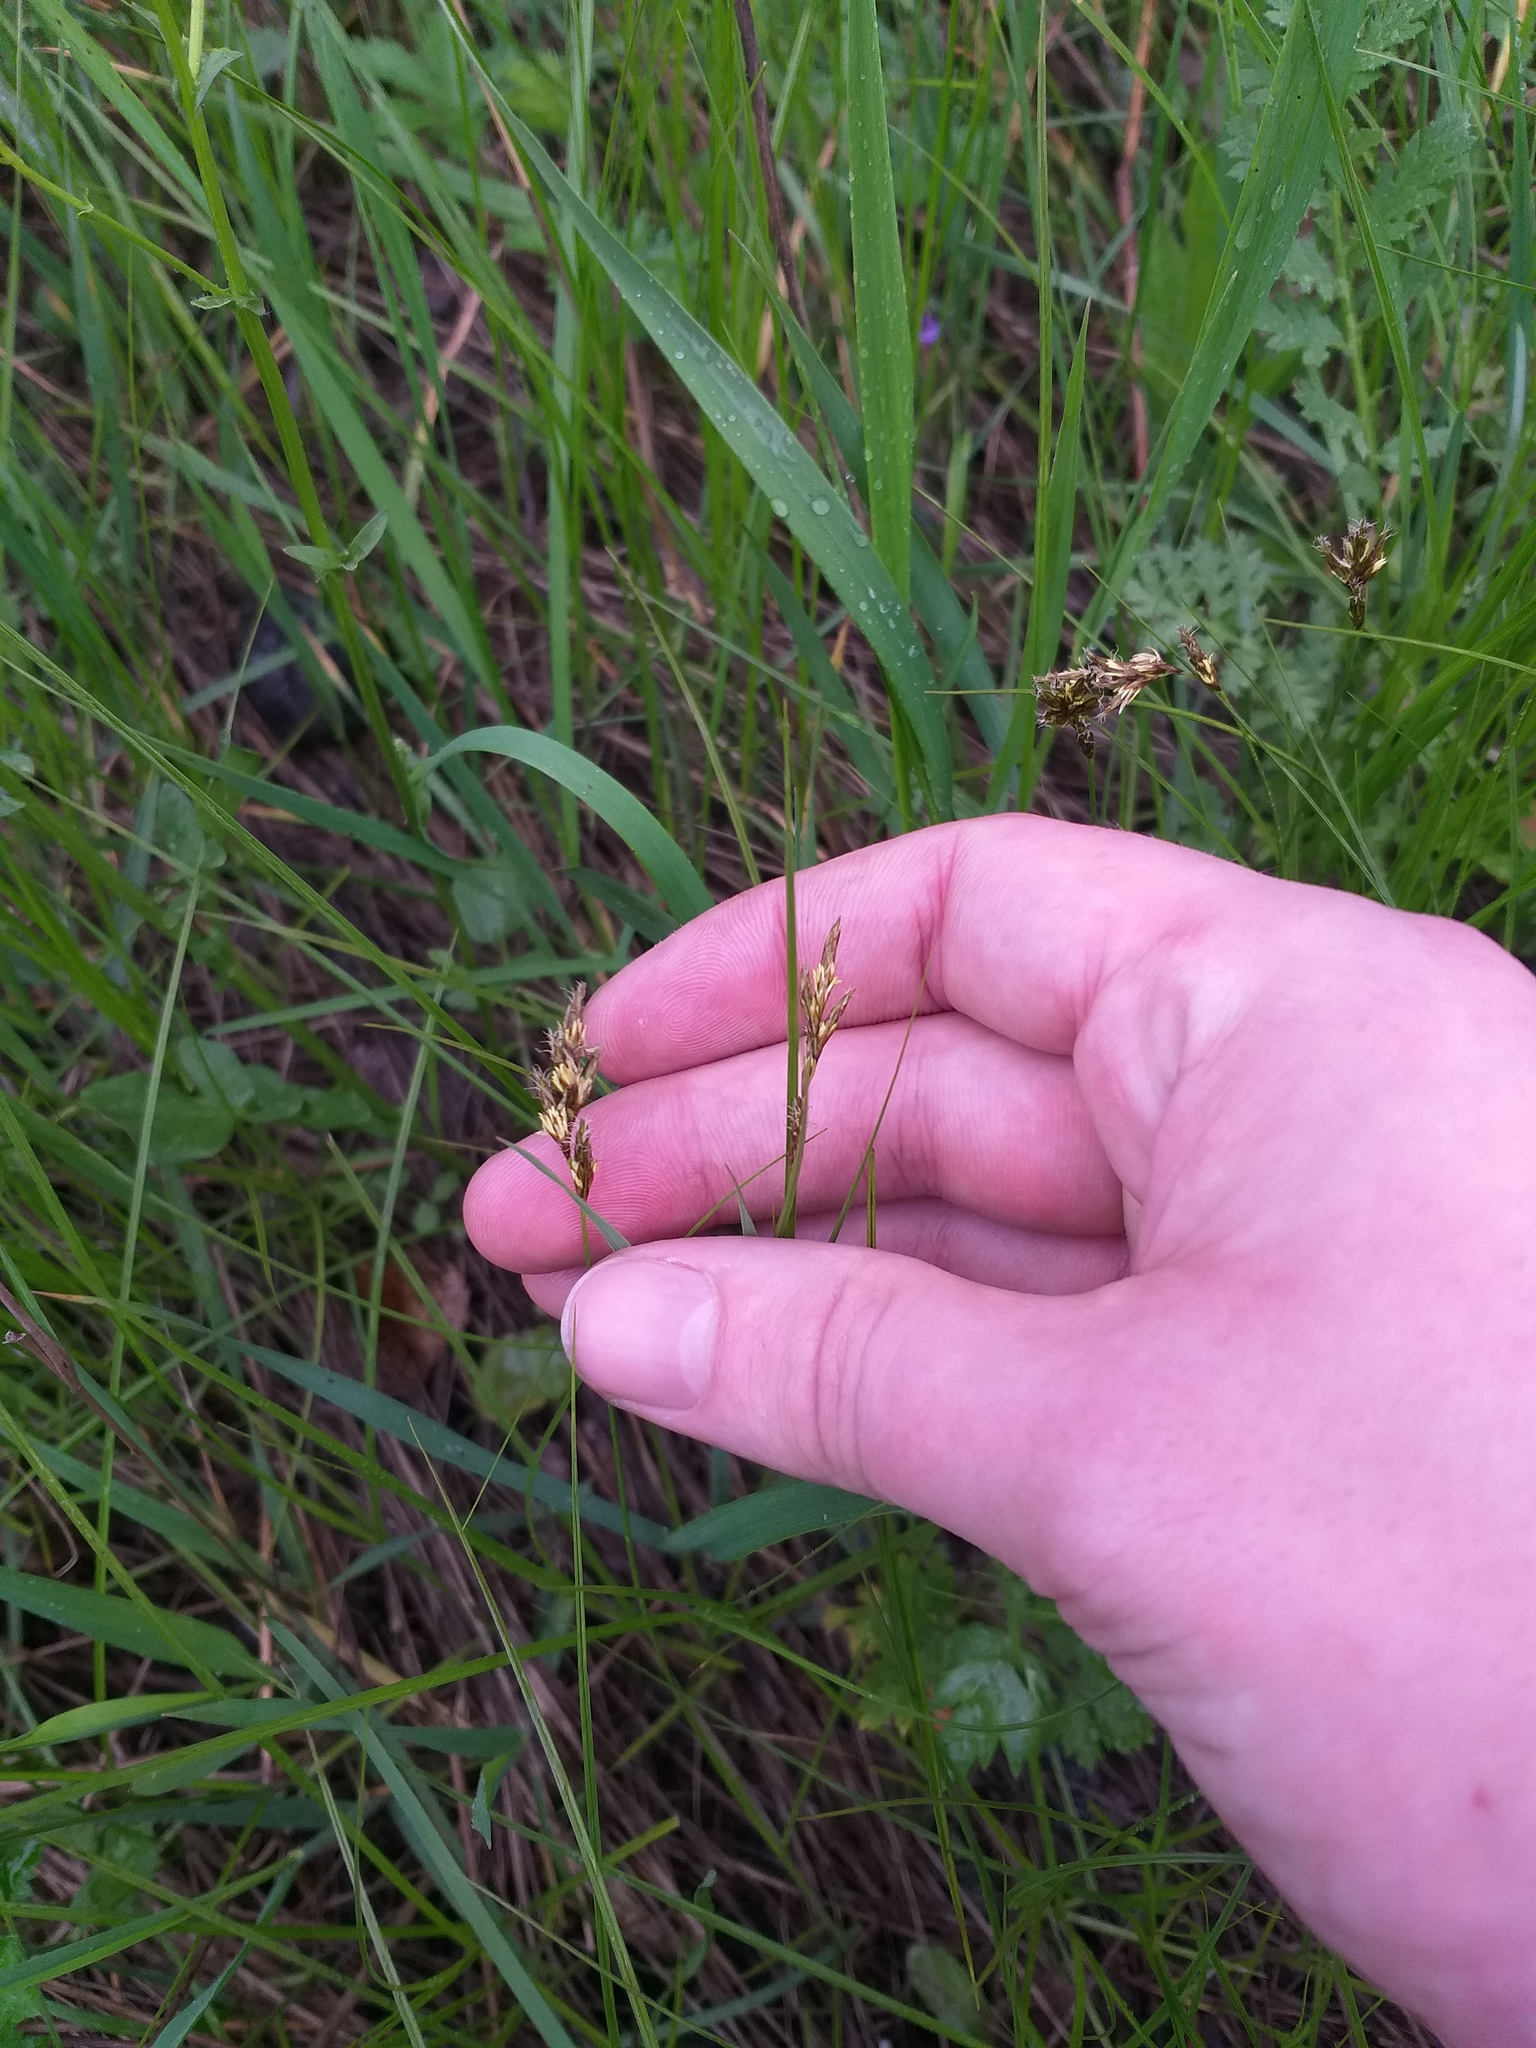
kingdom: Plantae
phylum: Tracheophyta
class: Liliopsida
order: Poales
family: Cyperaceae
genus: Carex
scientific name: Carex praecox
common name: Early sedge
